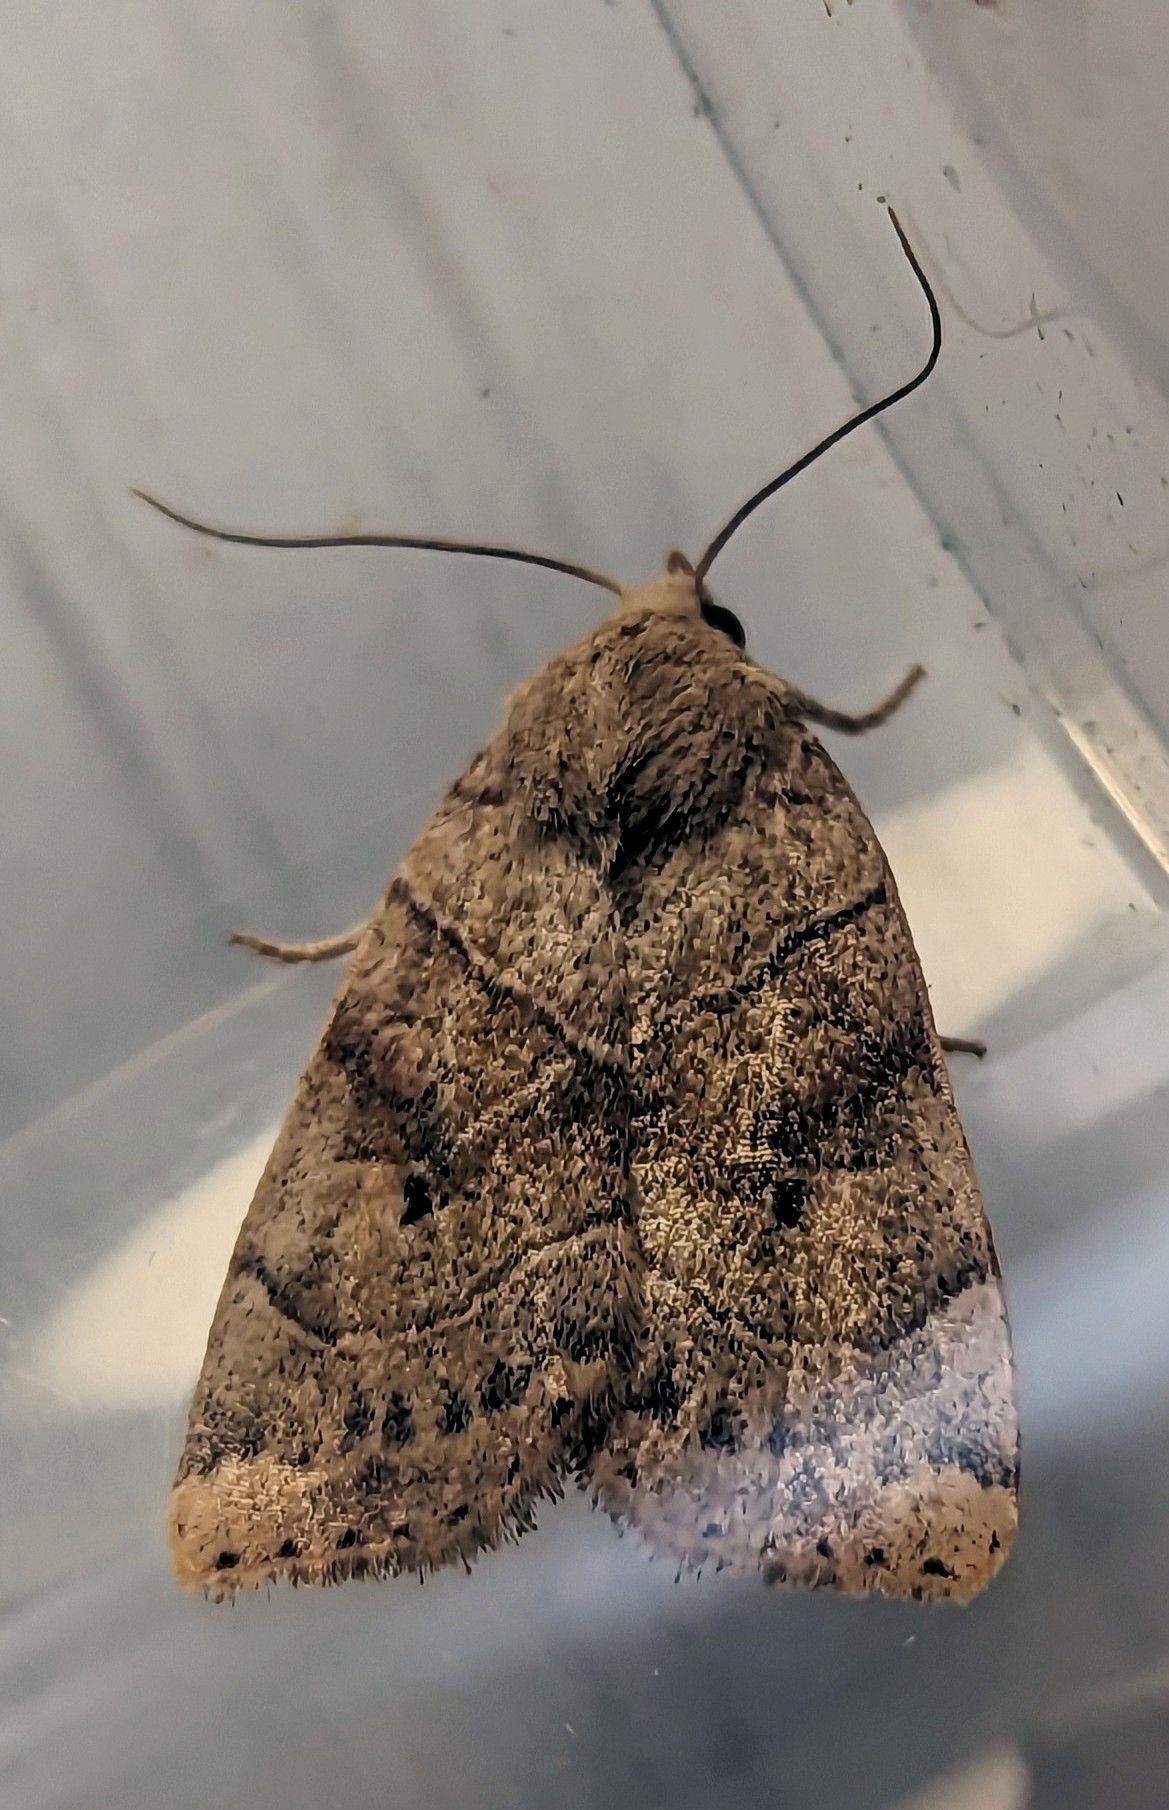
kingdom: Animalia
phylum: Arthropoda
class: Insecta
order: Lepidoptera
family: Noctuidae
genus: Cosmia
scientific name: Cosmia trapezina
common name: Dun-bar
